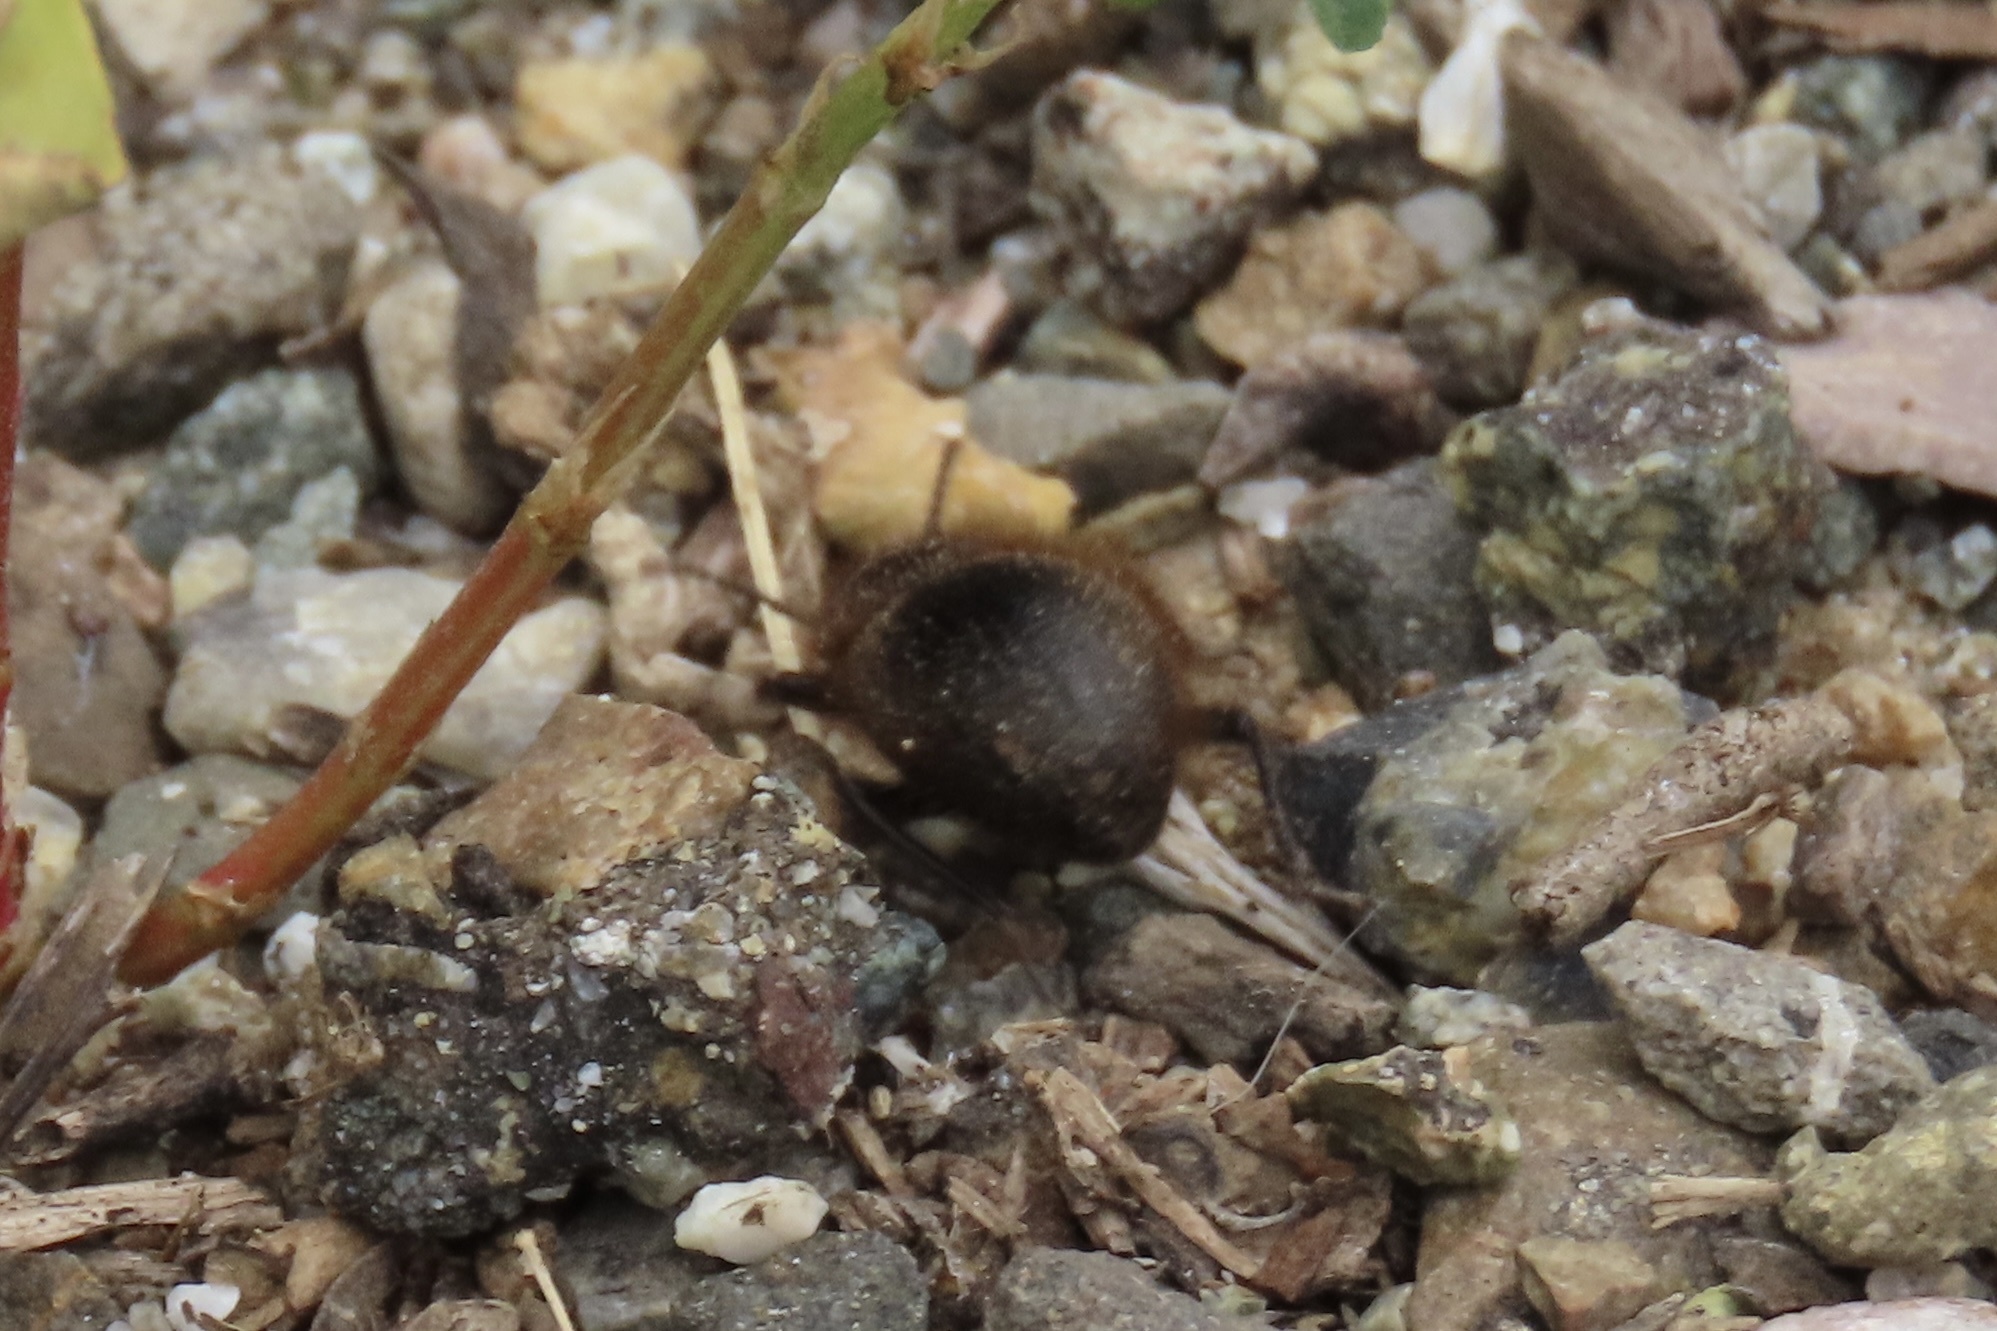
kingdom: Animalia
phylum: Arthropoda
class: Insecta
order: Coleoptera
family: Tenebrionidae
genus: Eleodes
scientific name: Eleodes osculans
